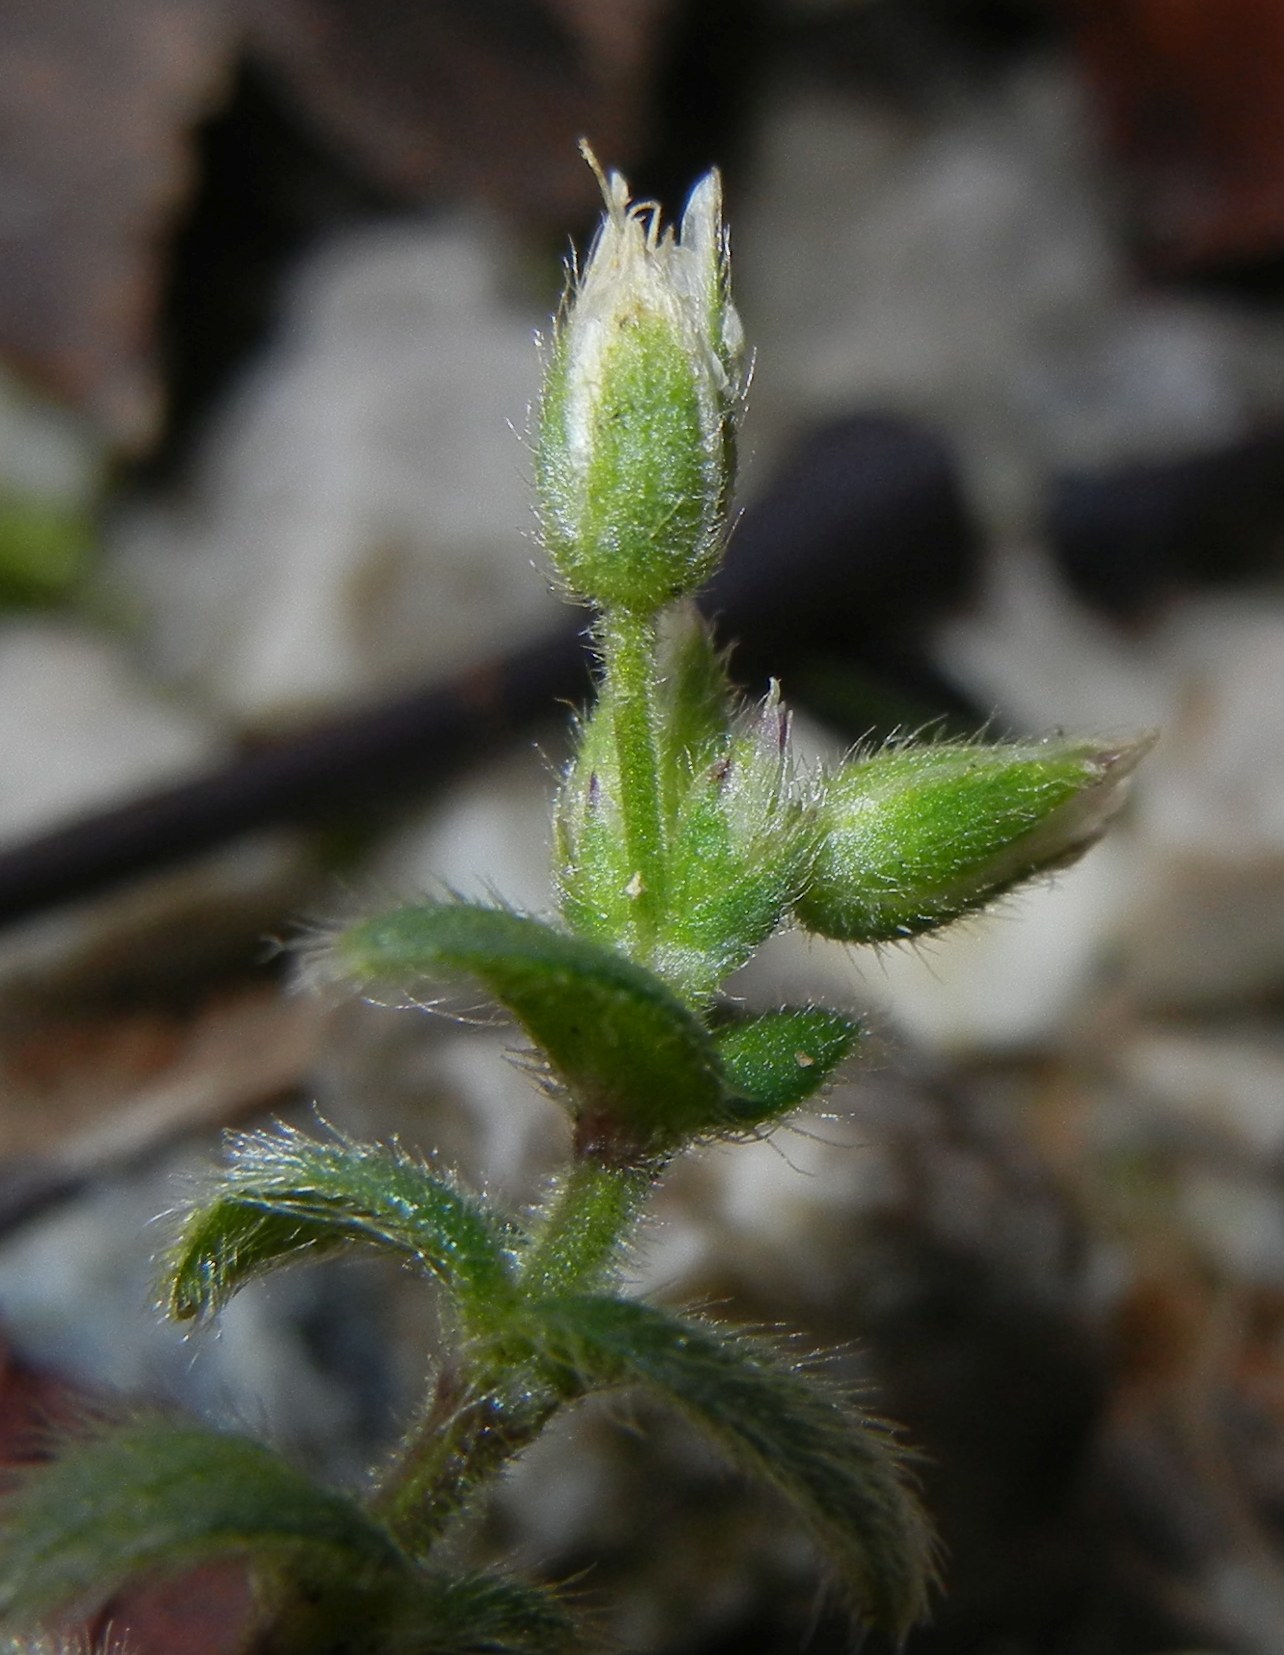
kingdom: Plantae
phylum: Tracheophyta
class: Magnoliopsida
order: Caryophyllales
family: Caryophyllaceae
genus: Cerastium
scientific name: Cerastium fontanum
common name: Common mouse-ear
